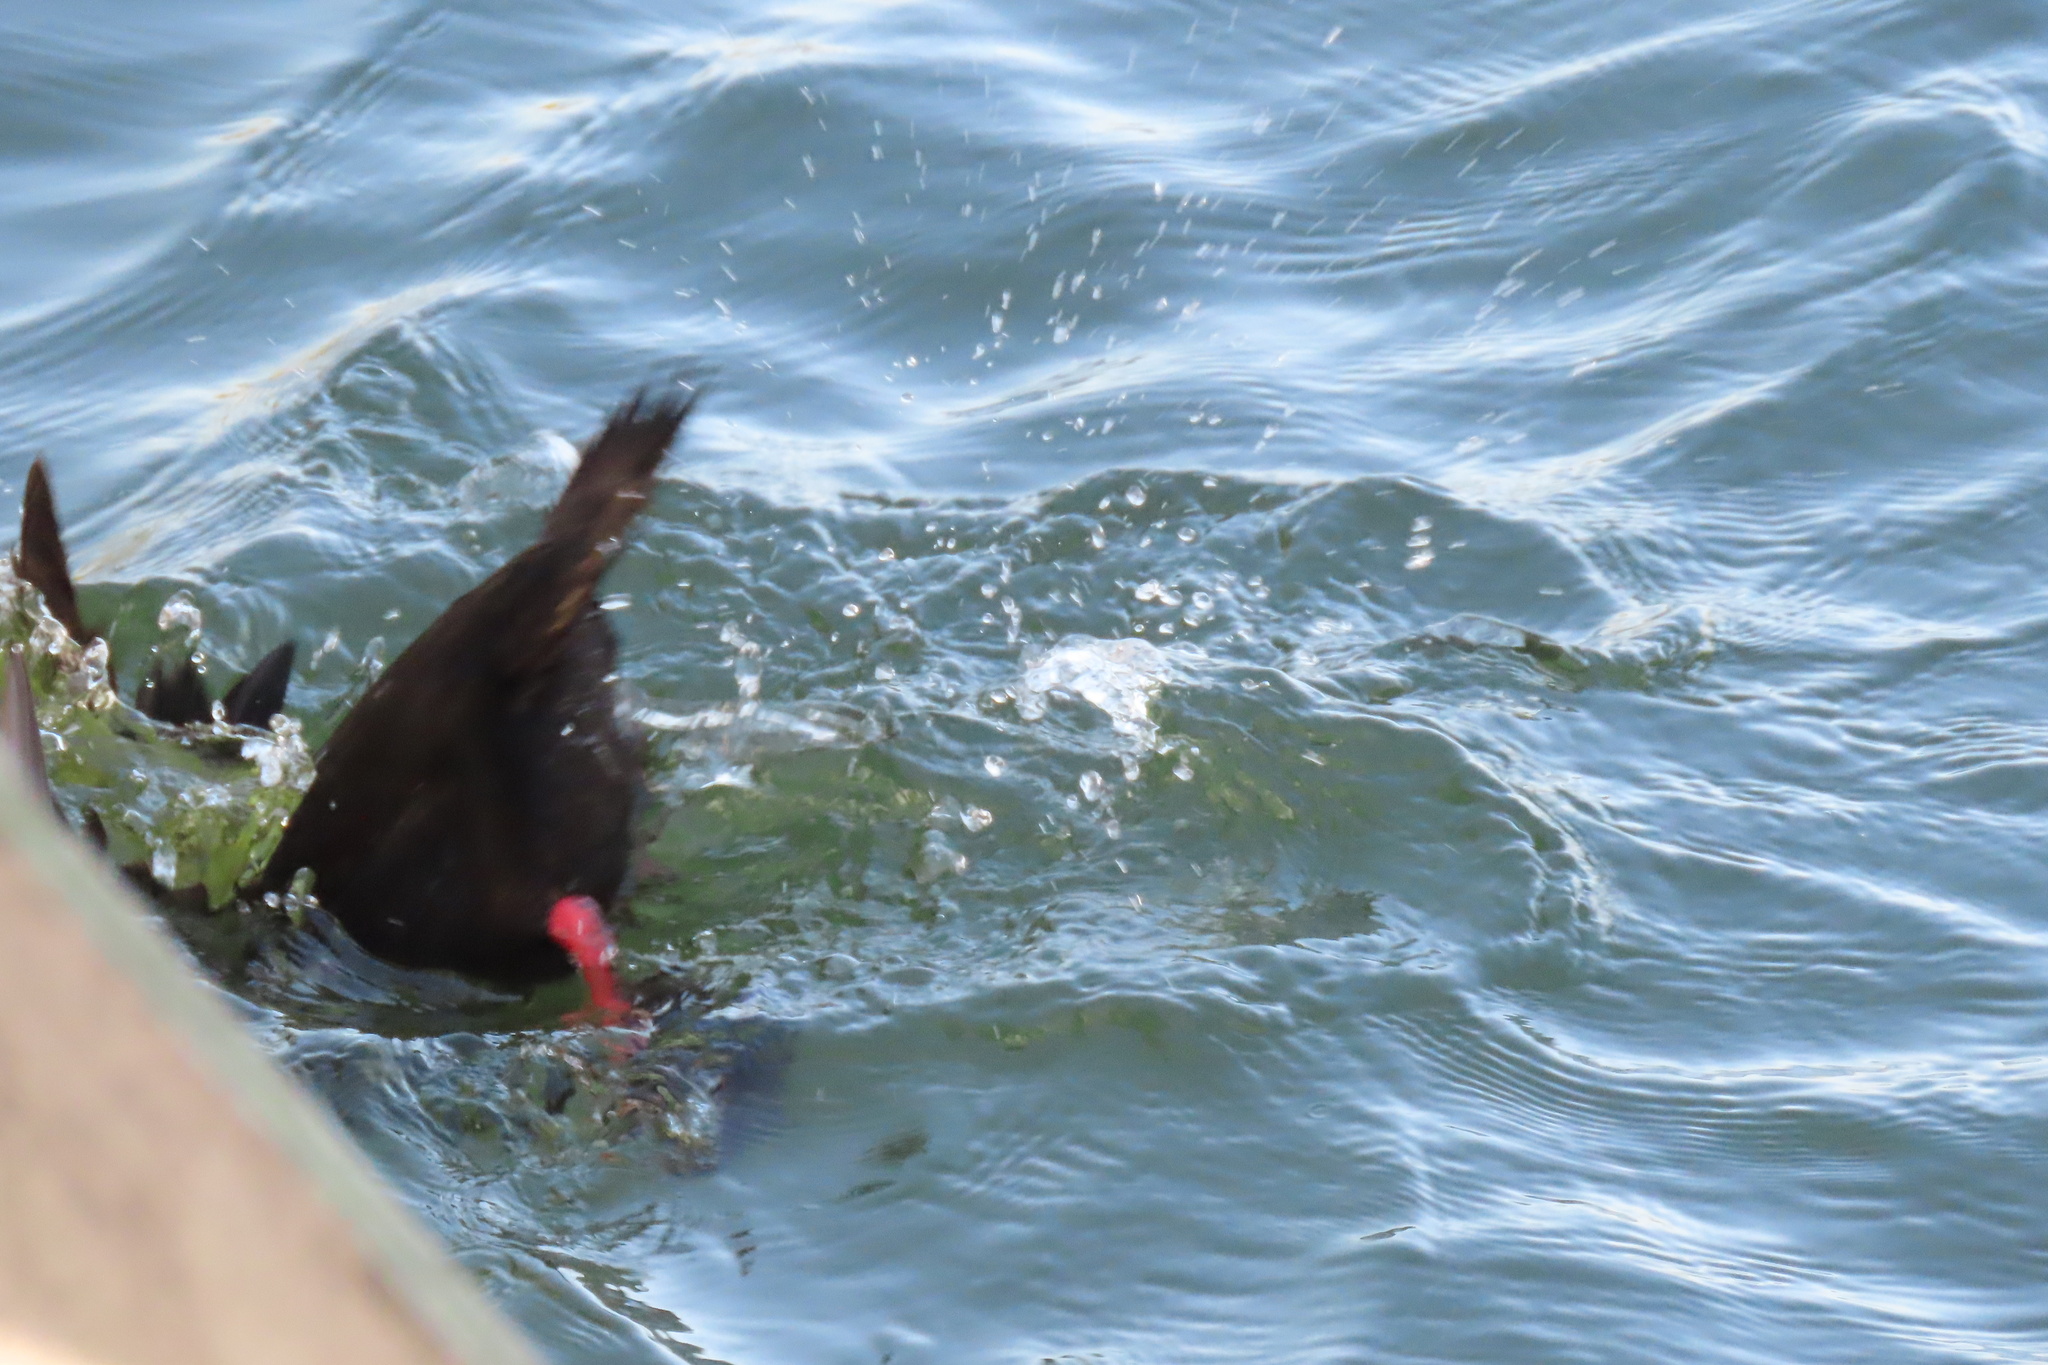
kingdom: Animalia
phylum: Chordata
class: Aves
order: Anseriformes
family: Anatidae
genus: Melanitta
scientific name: Melanitta perspicillata
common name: Surf scoter
